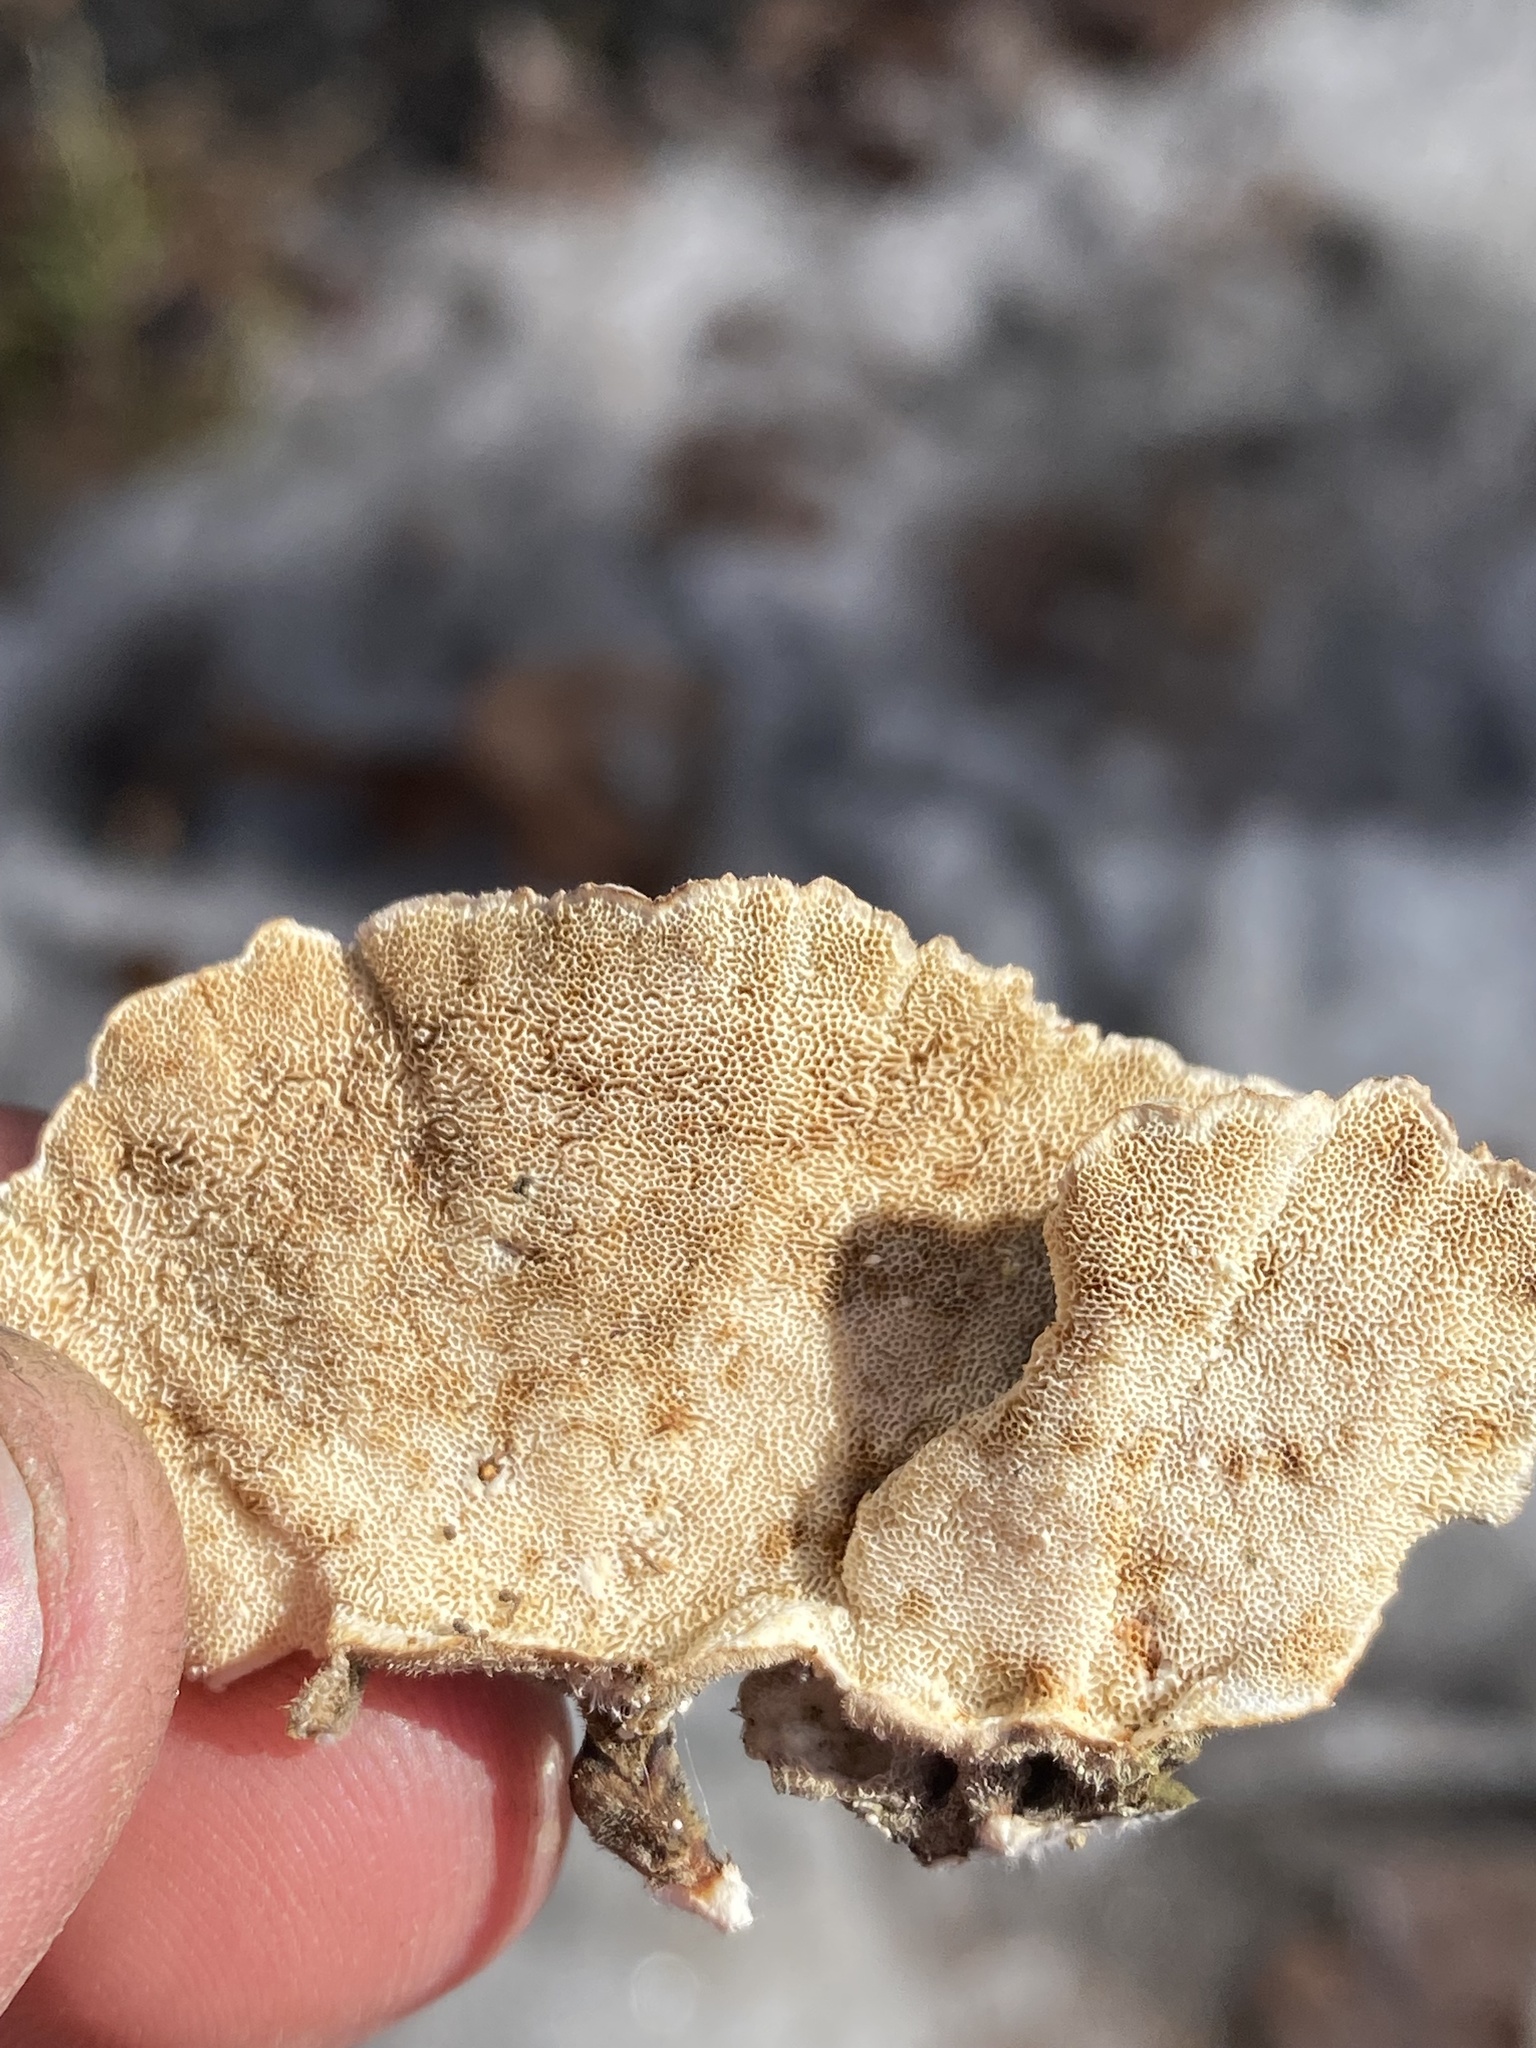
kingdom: Fungi
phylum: Basidiomycota
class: Agaricomycetes
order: Polyporales
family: Polyporaceae
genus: Trametes
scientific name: Trametes versicolor
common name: Turkeytail
